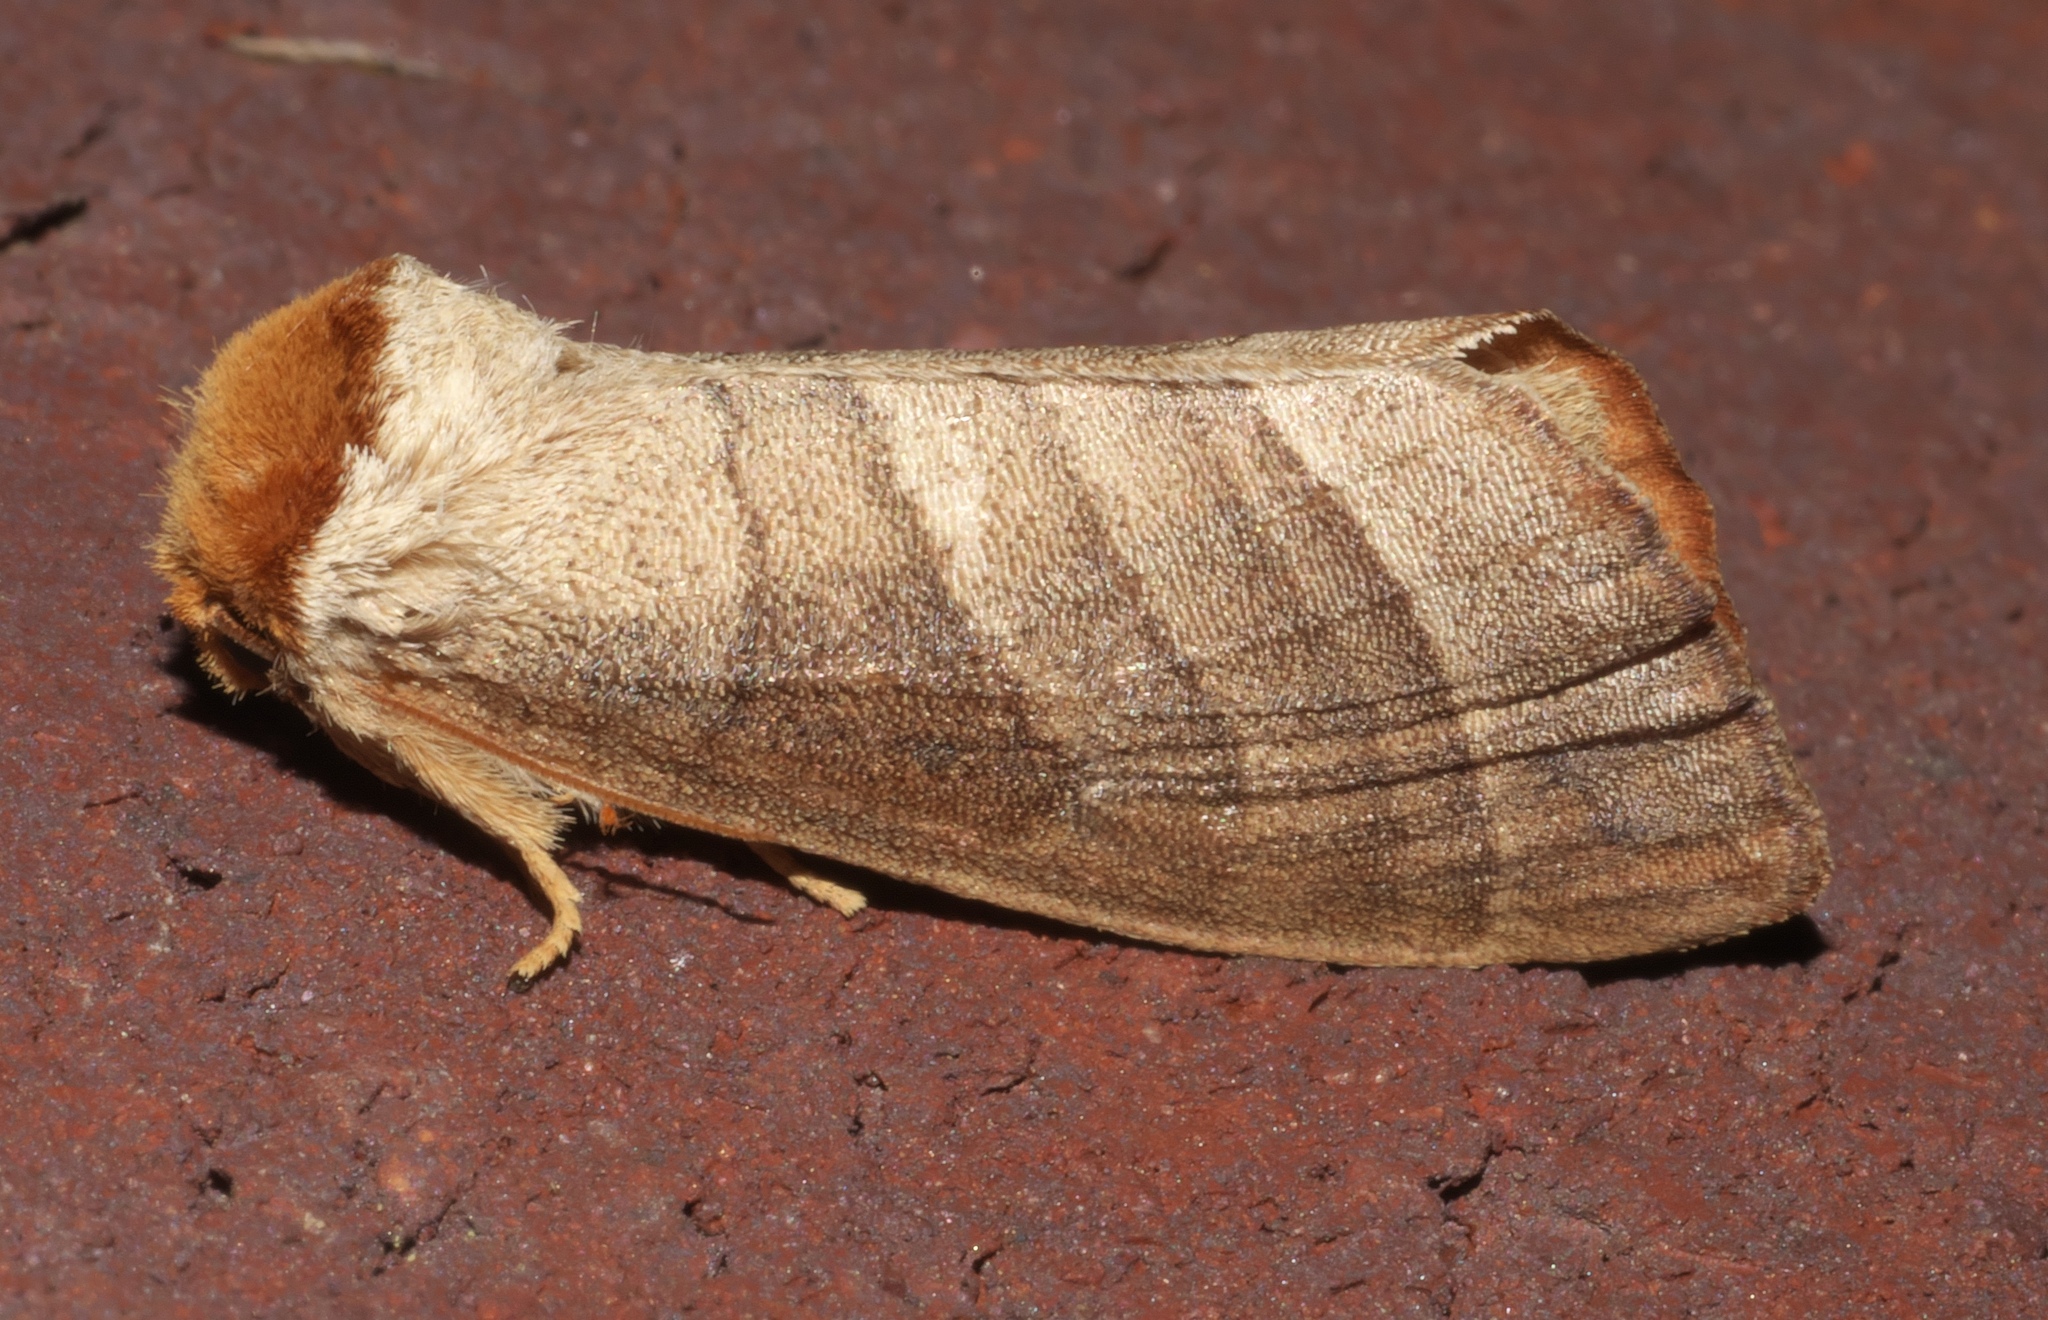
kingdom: Animalia
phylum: Arthropoda
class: Insecta
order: Lepidoptera
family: Notodontidae
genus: Datana
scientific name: Datana integerrima
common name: Walnut caterpillar
